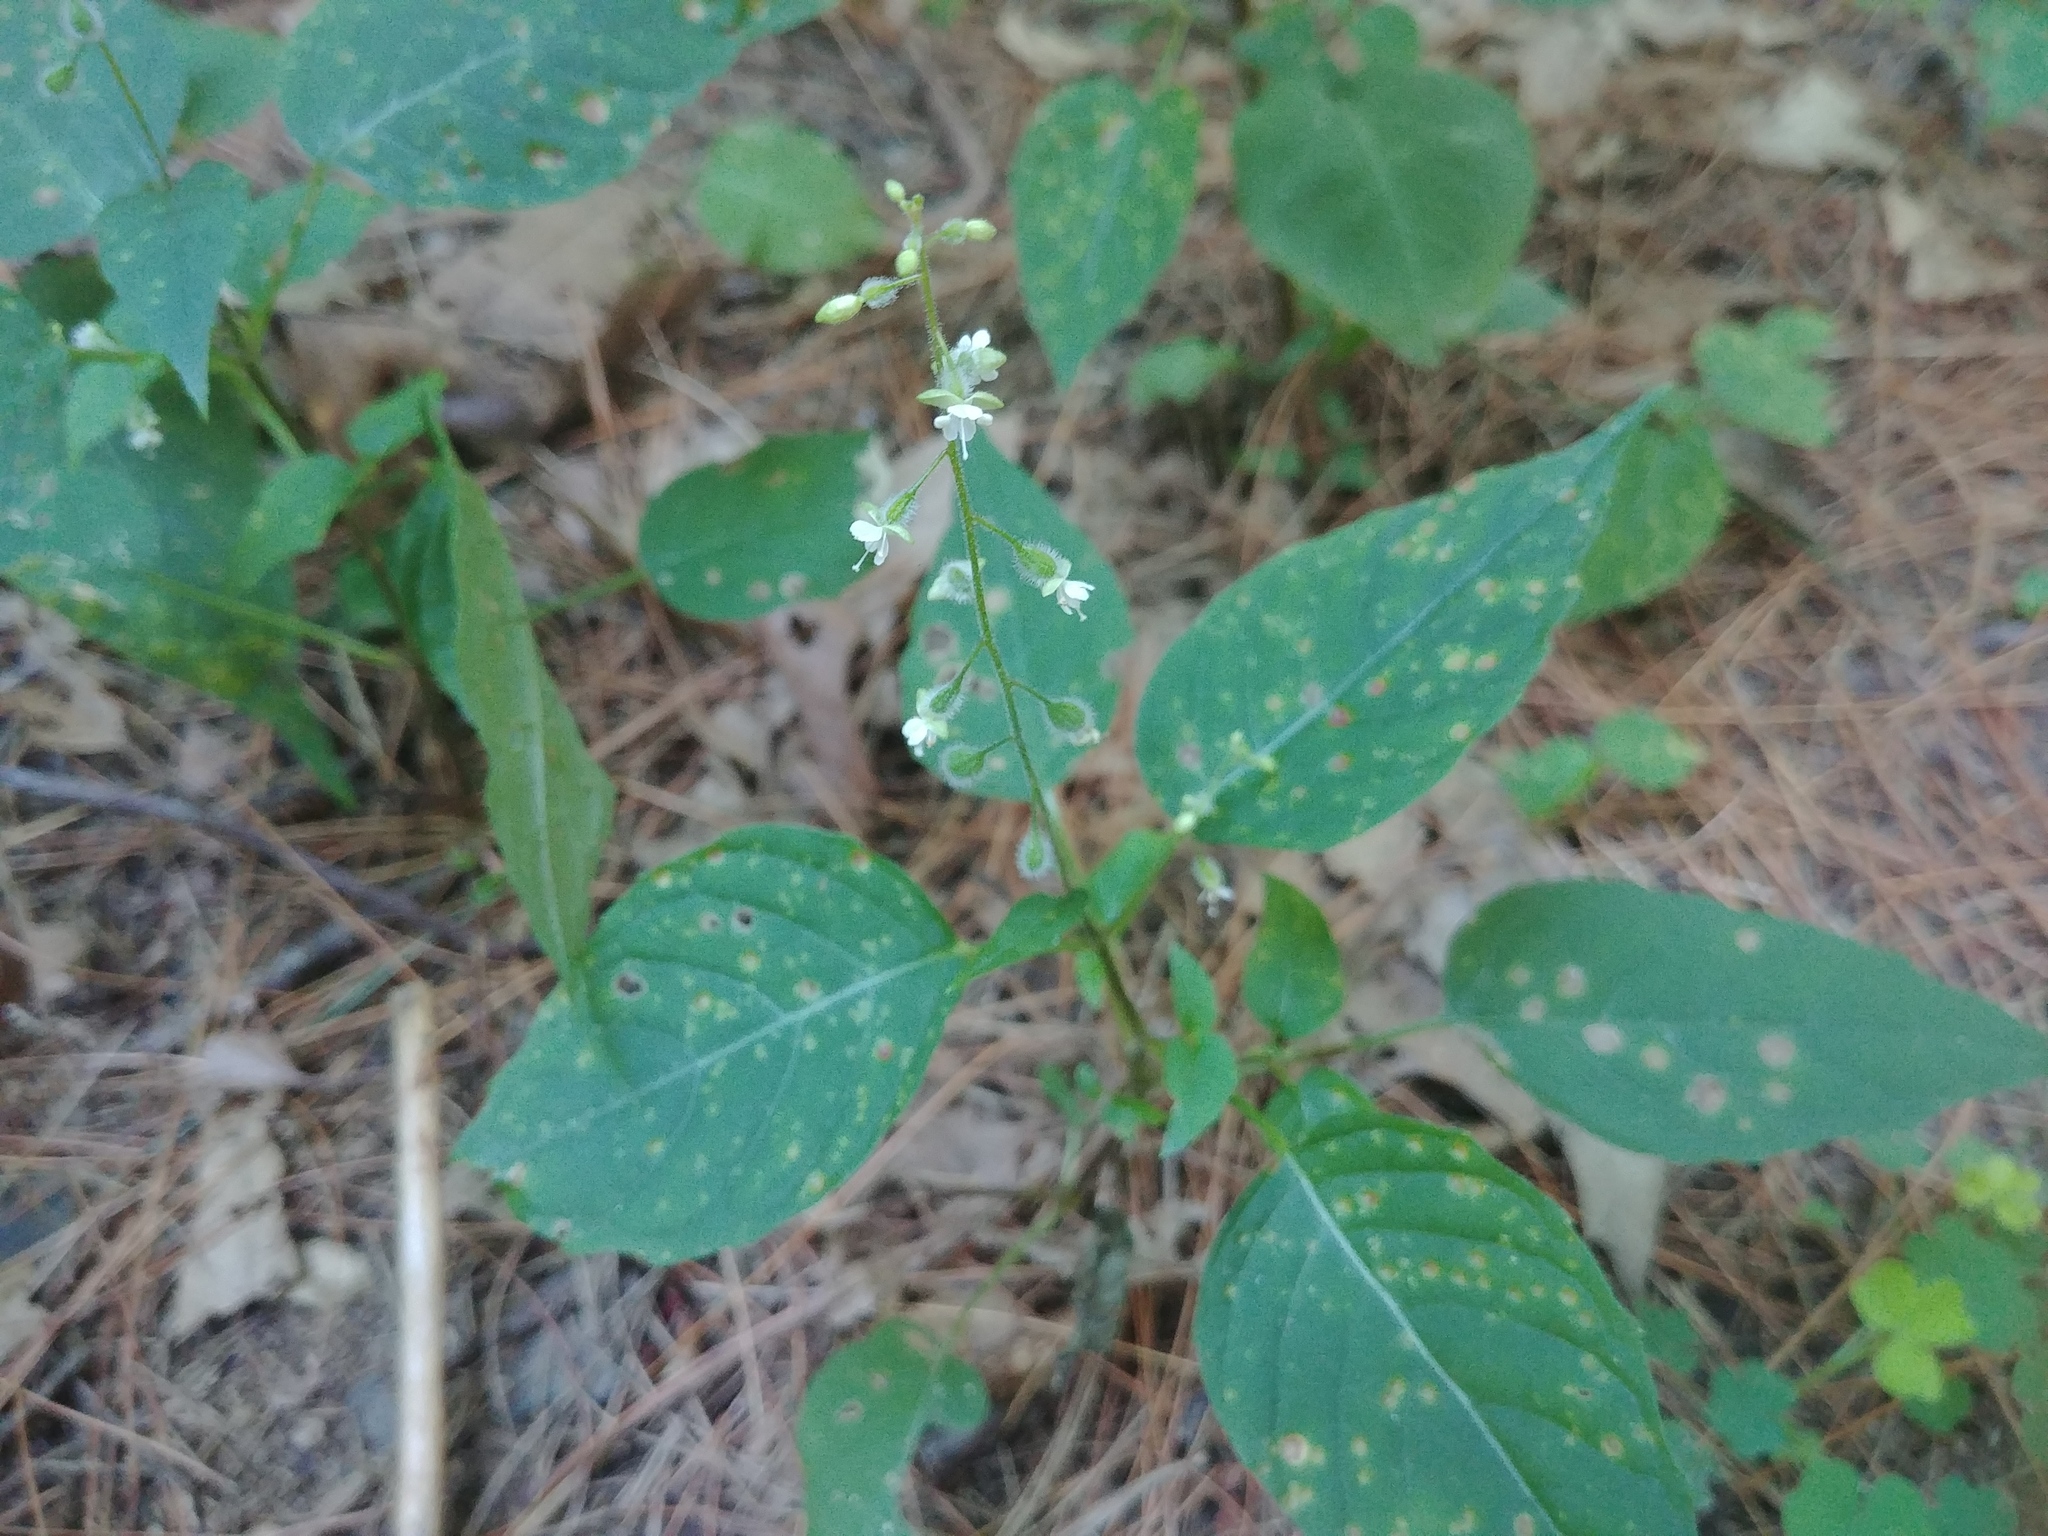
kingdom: Plantae
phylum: Tracheophyta
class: Magnoliopsida
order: Myrtales
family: Onagraceae
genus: Circaea
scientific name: Circaea canadensis
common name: Broad-leaved enchanter's nightshade
